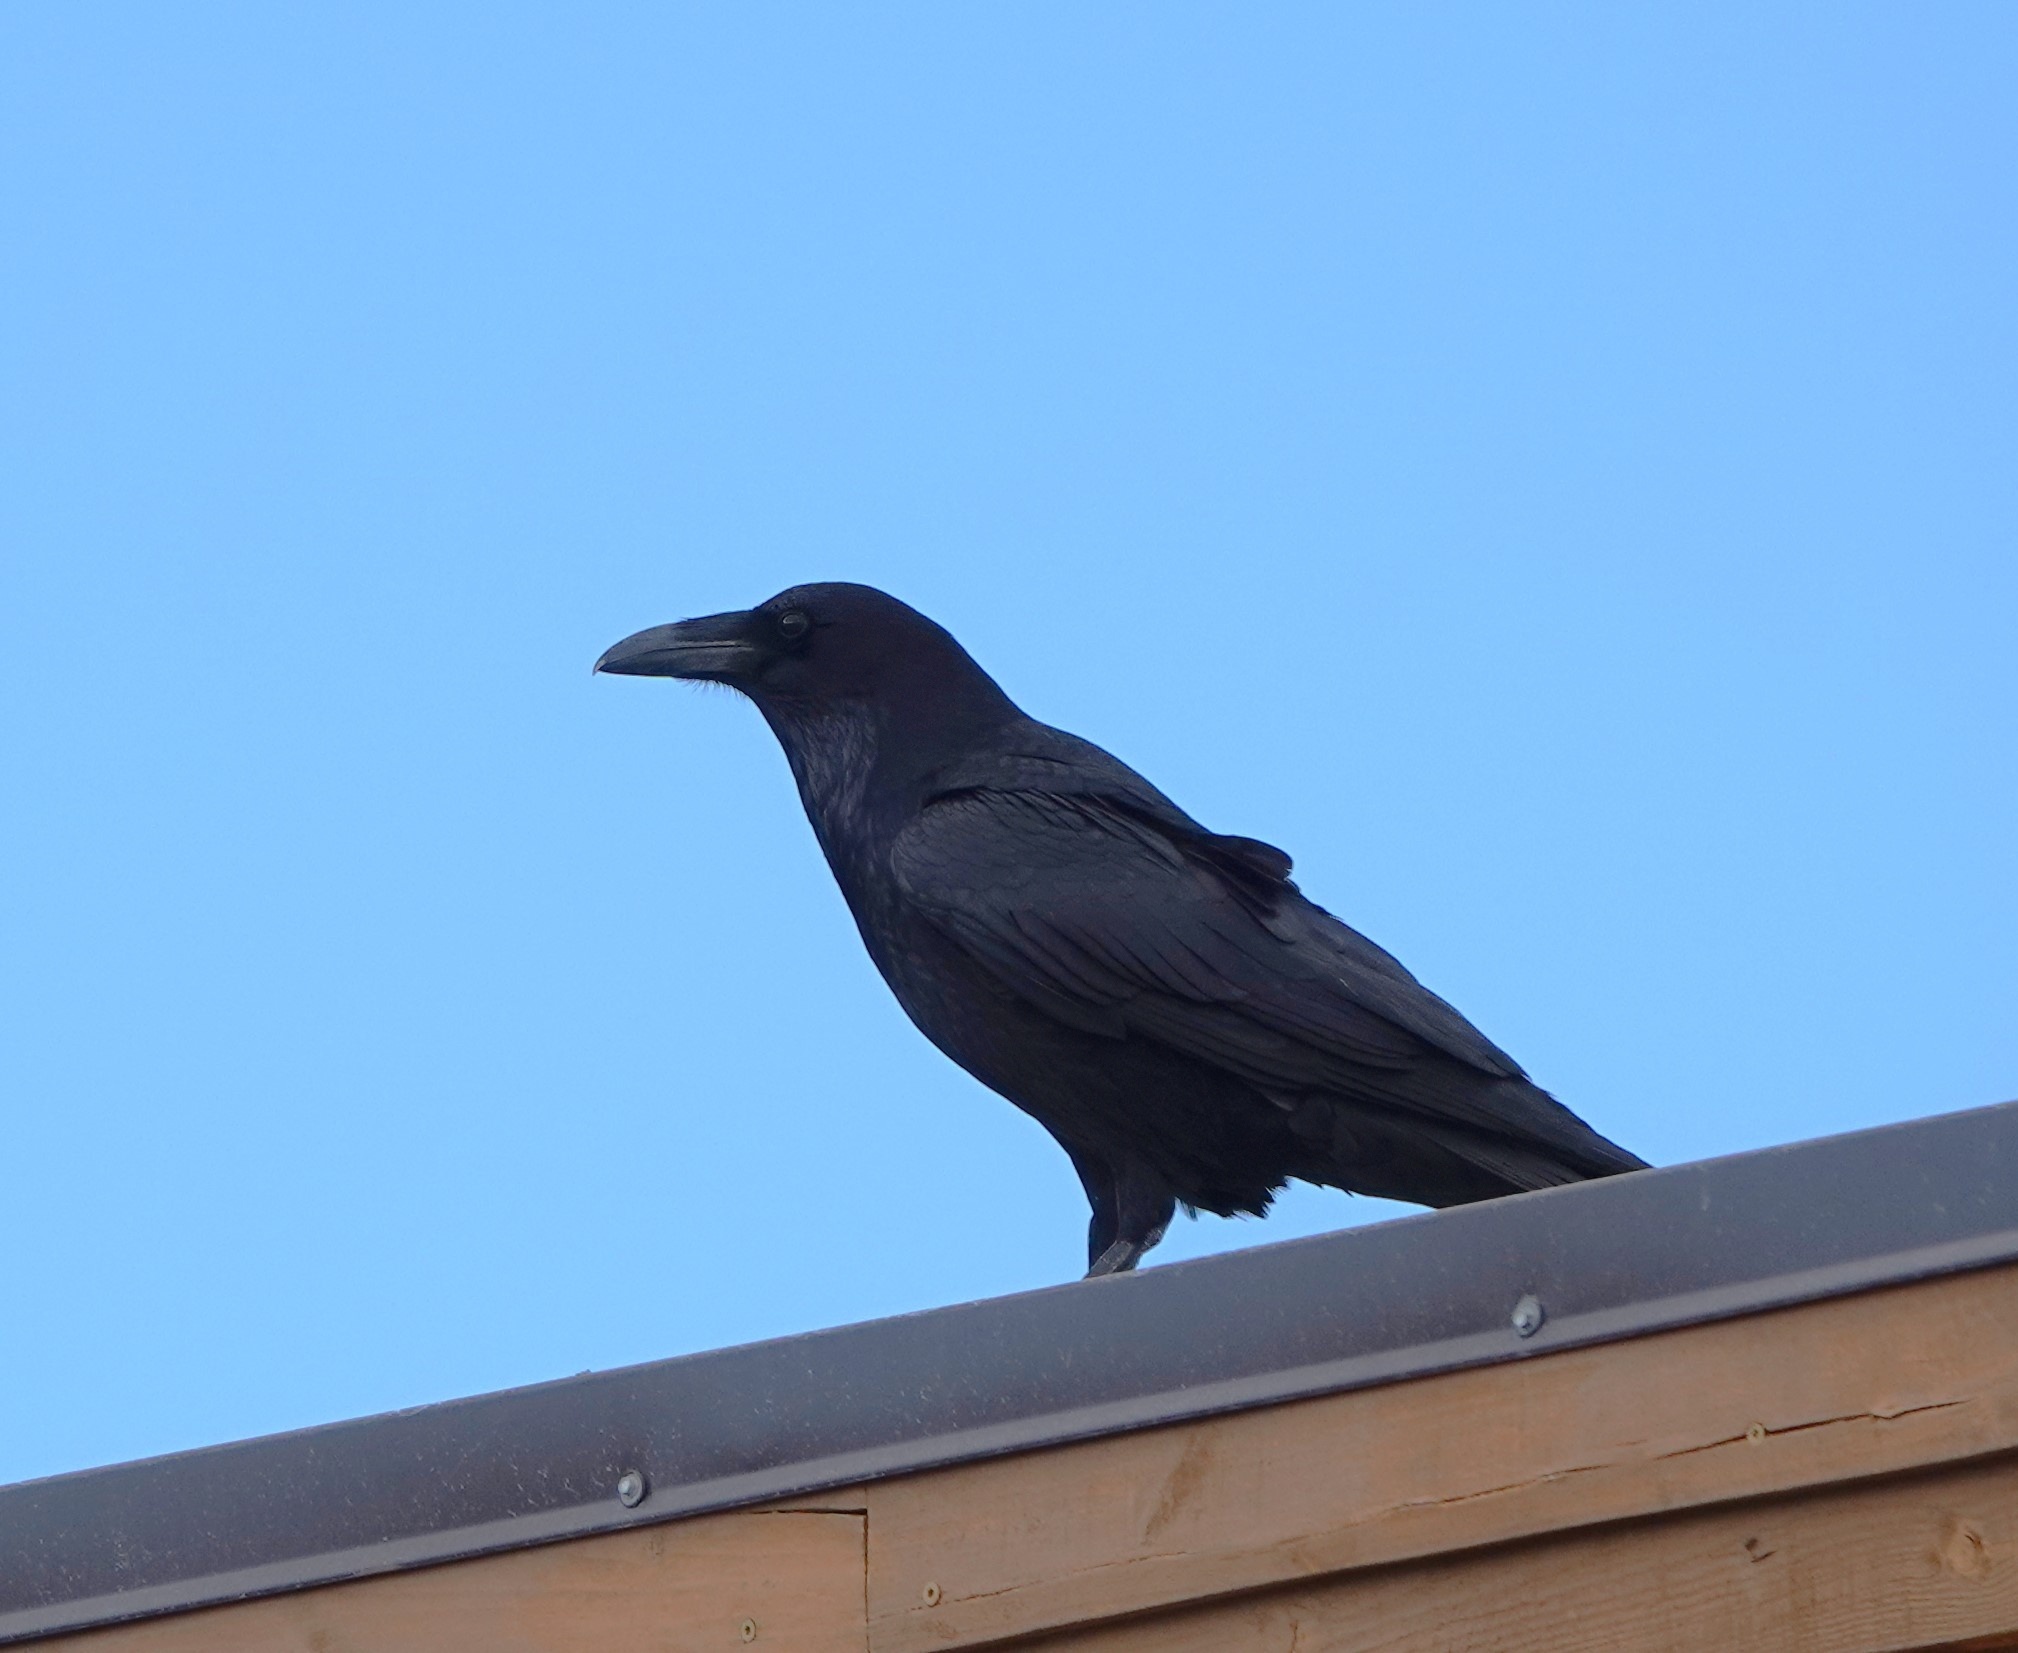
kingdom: Animalia
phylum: Chordata
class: Aves
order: Passeriformes
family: Corvidae
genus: Corvus
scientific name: Corvus corax
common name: Common raven
